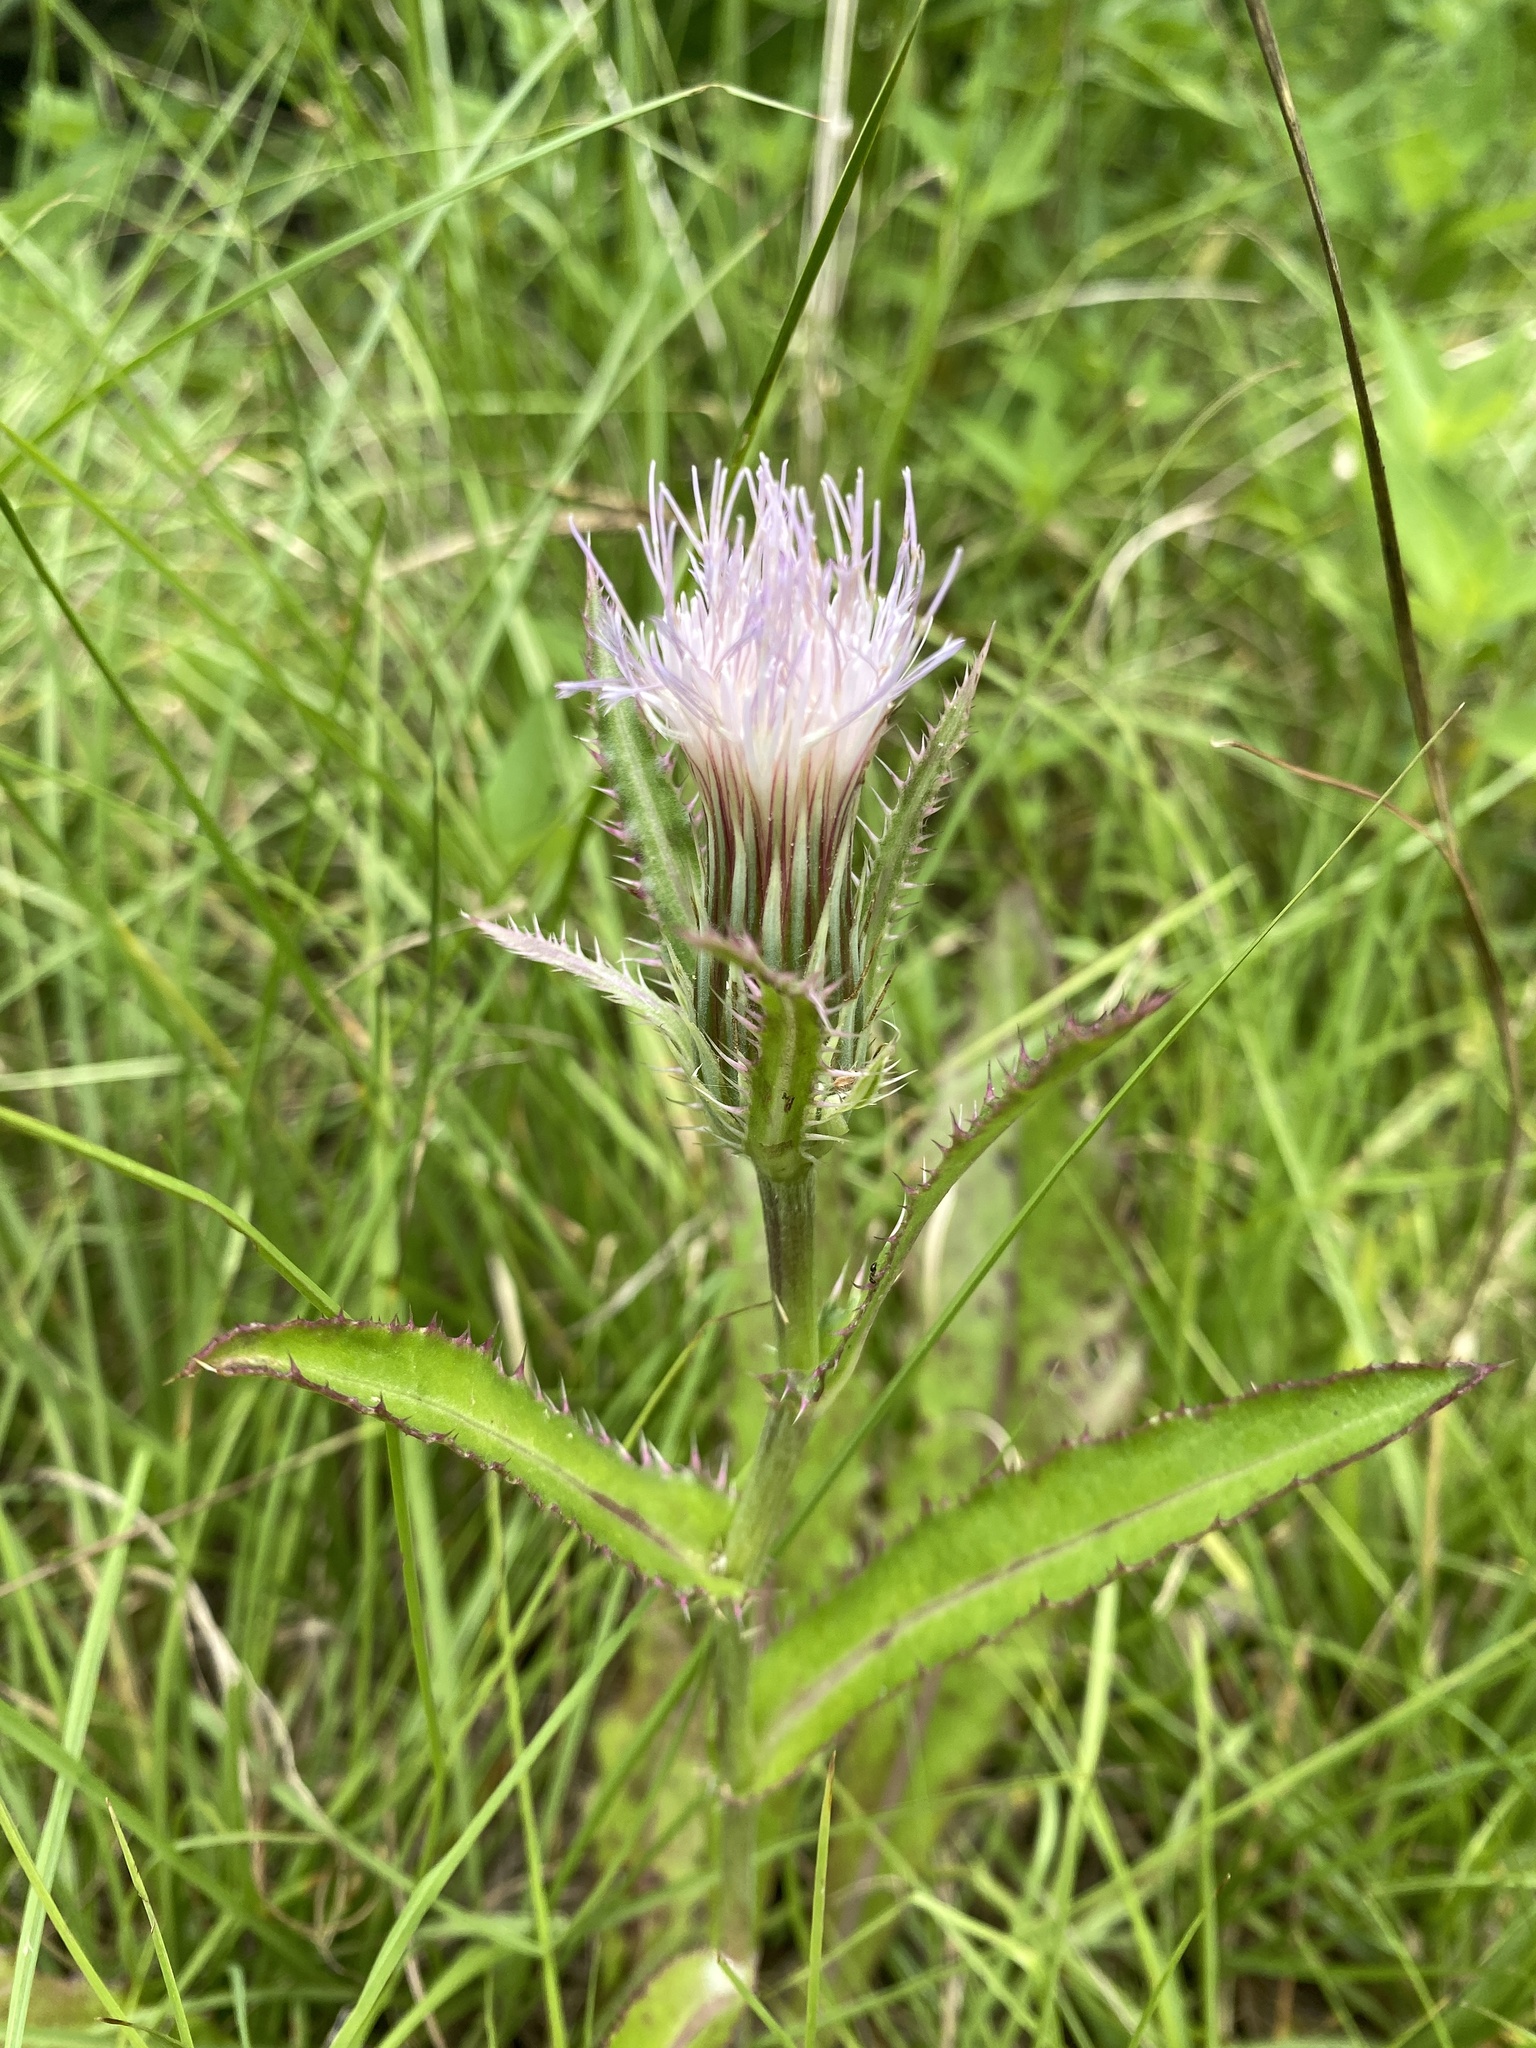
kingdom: Plantae
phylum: Tracheophyta
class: Magnoliopsida
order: Asterales
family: Asteraceae
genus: Cirsium
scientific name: Cirsium horridulum
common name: Bristly thistle
